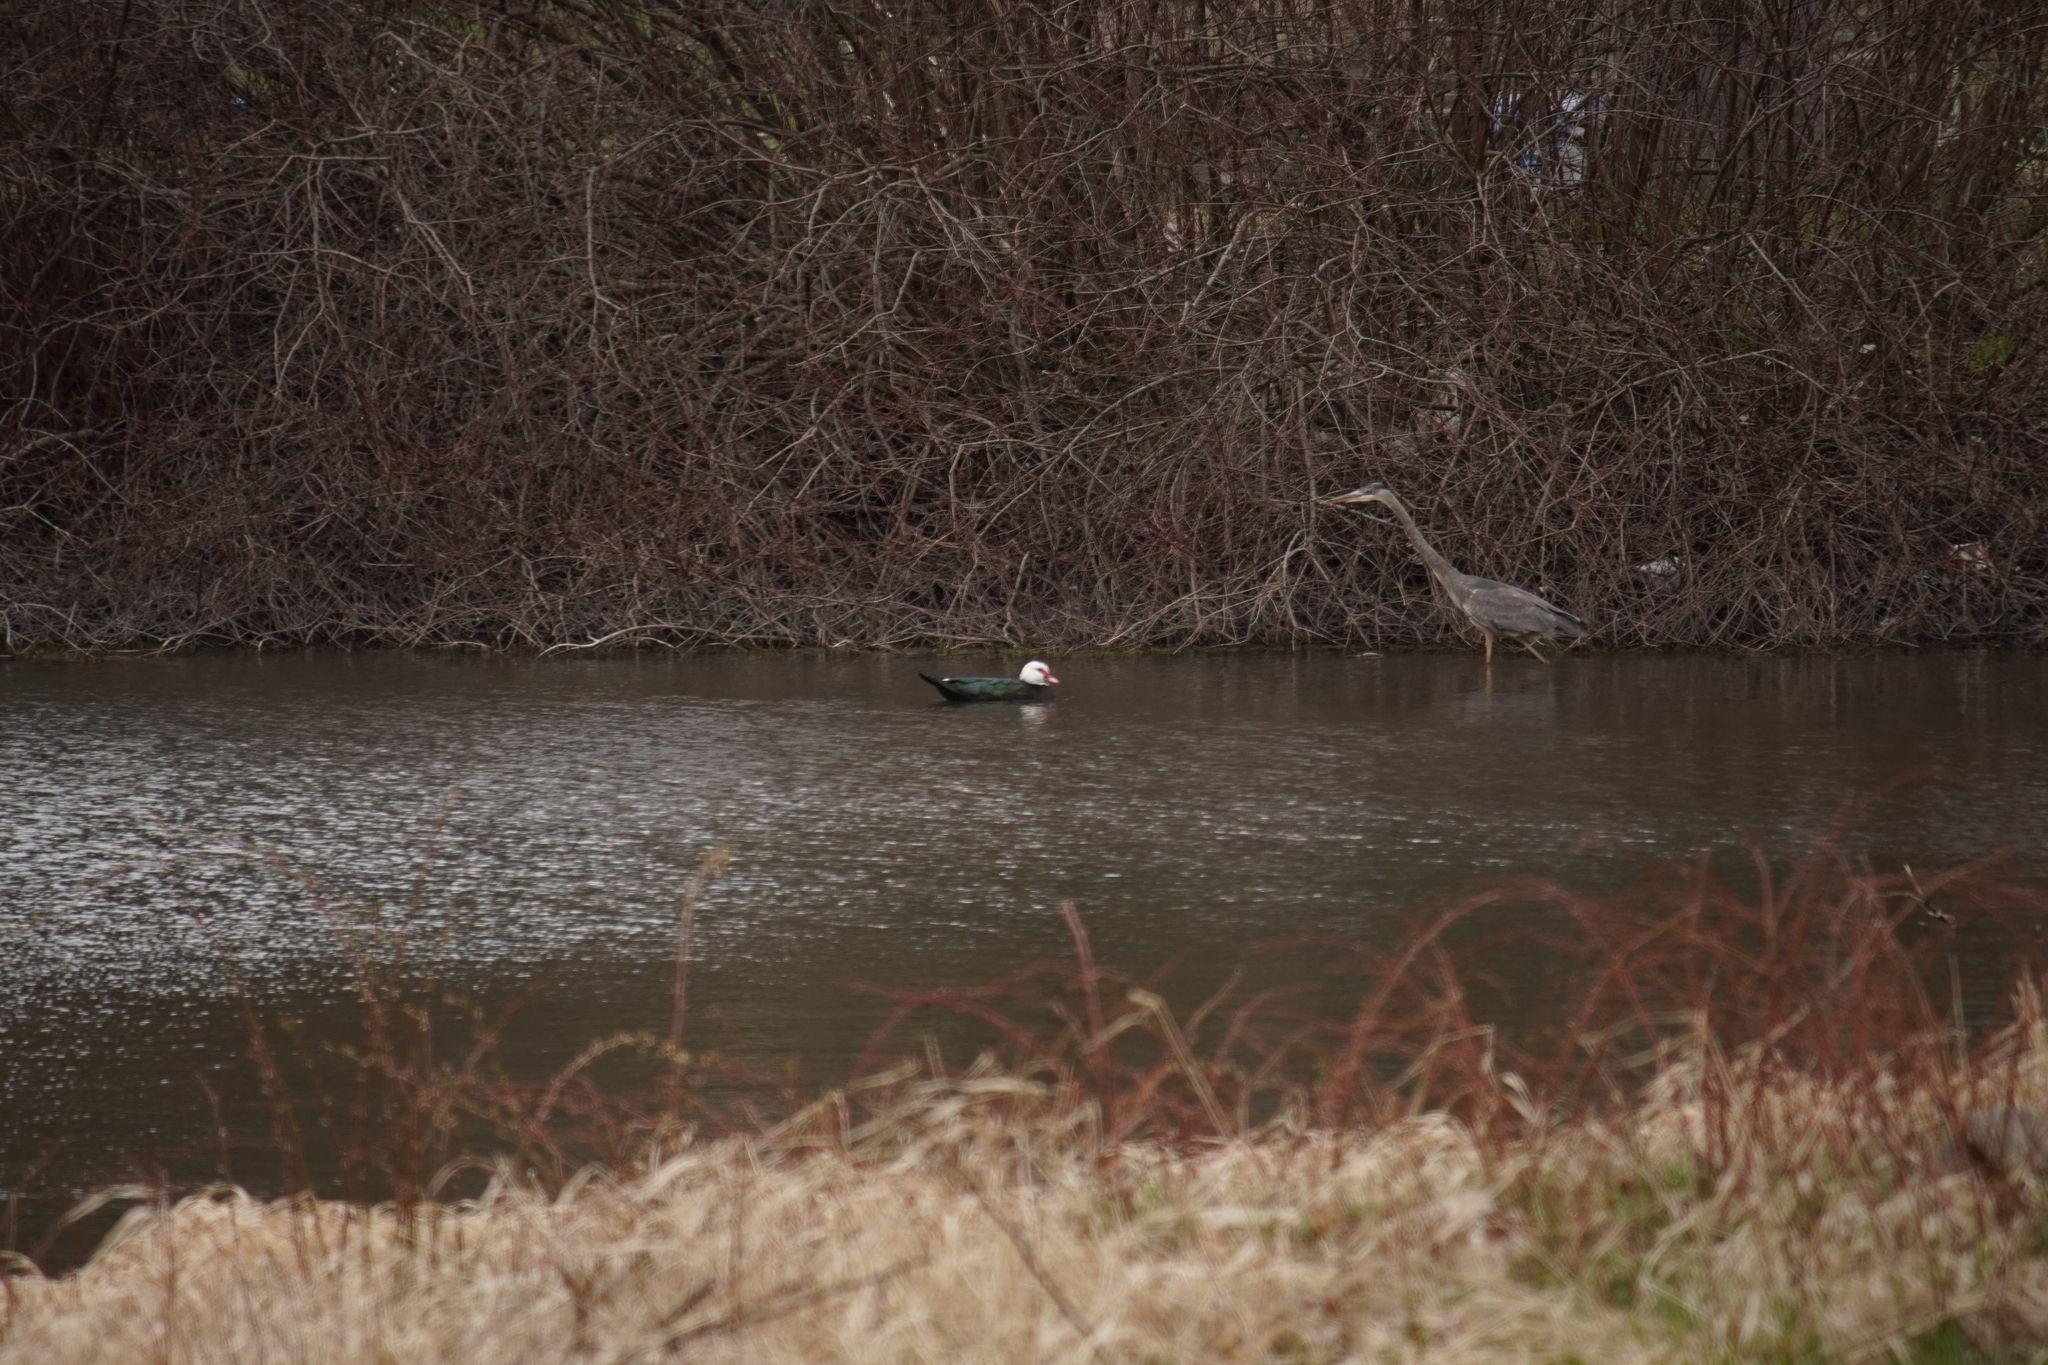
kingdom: Animalia
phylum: Chordata
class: Aves
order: Anseriformes
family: Anatidae
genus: Cairina
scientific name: Cairina moschata
